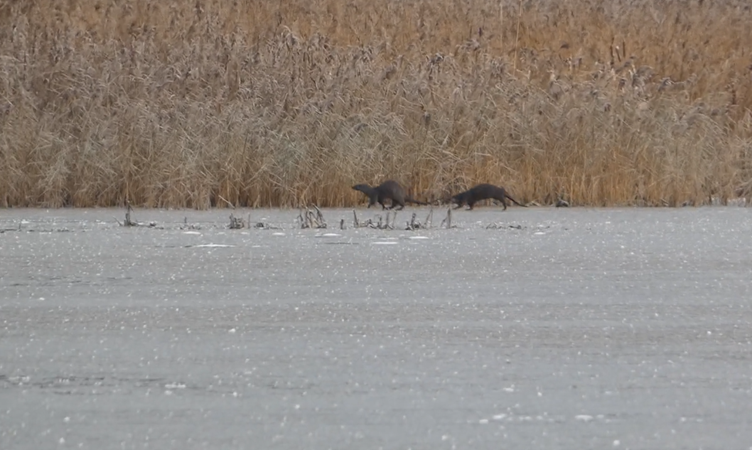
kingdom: Animalia
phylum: Chordata
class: Mammalia
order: Carnivora
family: Mustelidae
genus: Lutra
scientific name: Lutra lutra
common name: European otter
